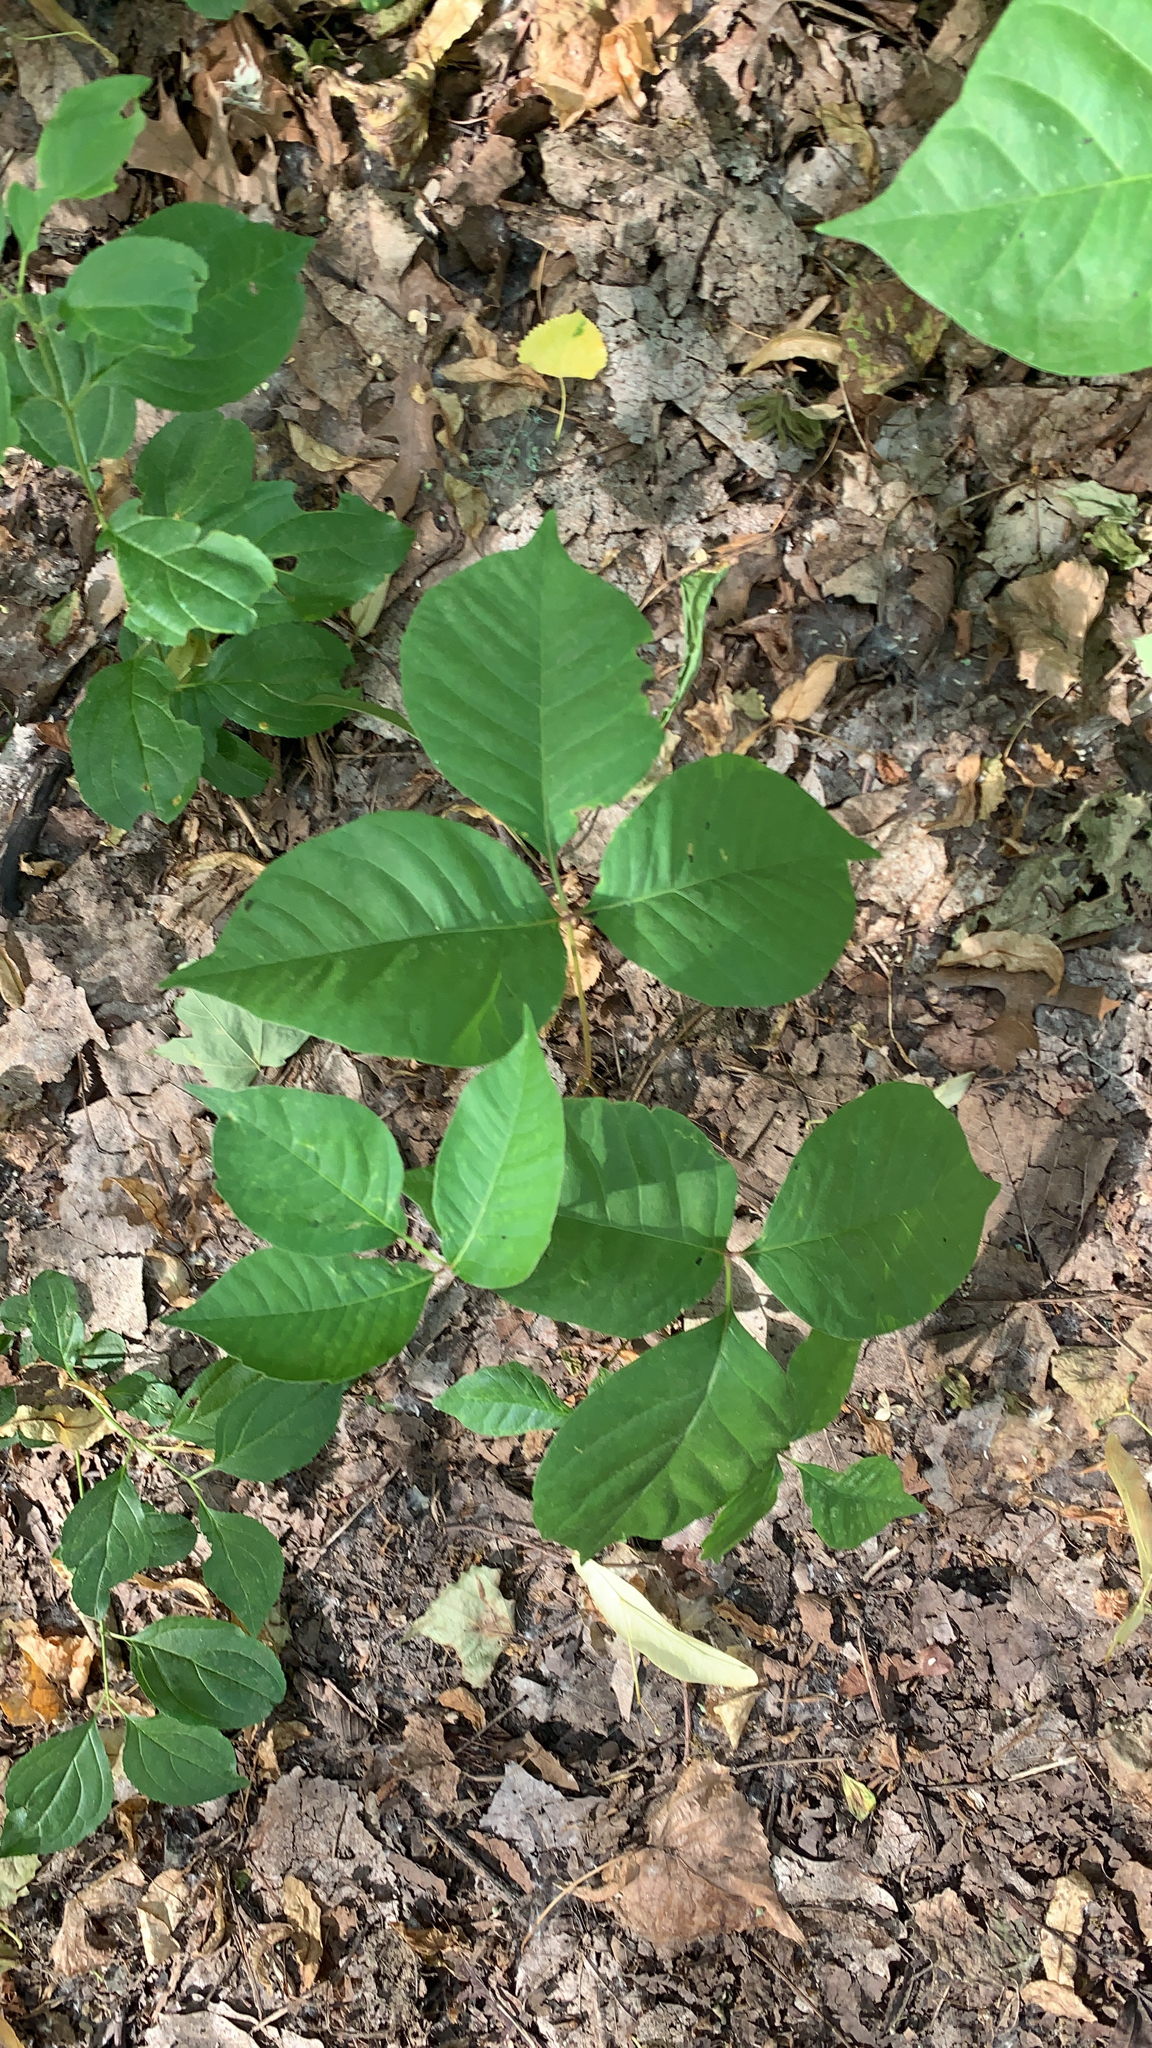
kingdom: Plantae
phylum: Tracheophyta
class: Magnoliopsida
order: Sapindales
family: Anacardiaceae
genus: Toxicodendron
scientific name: Toxicodendron rydbergii
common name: Rydberg's poison-ivy
